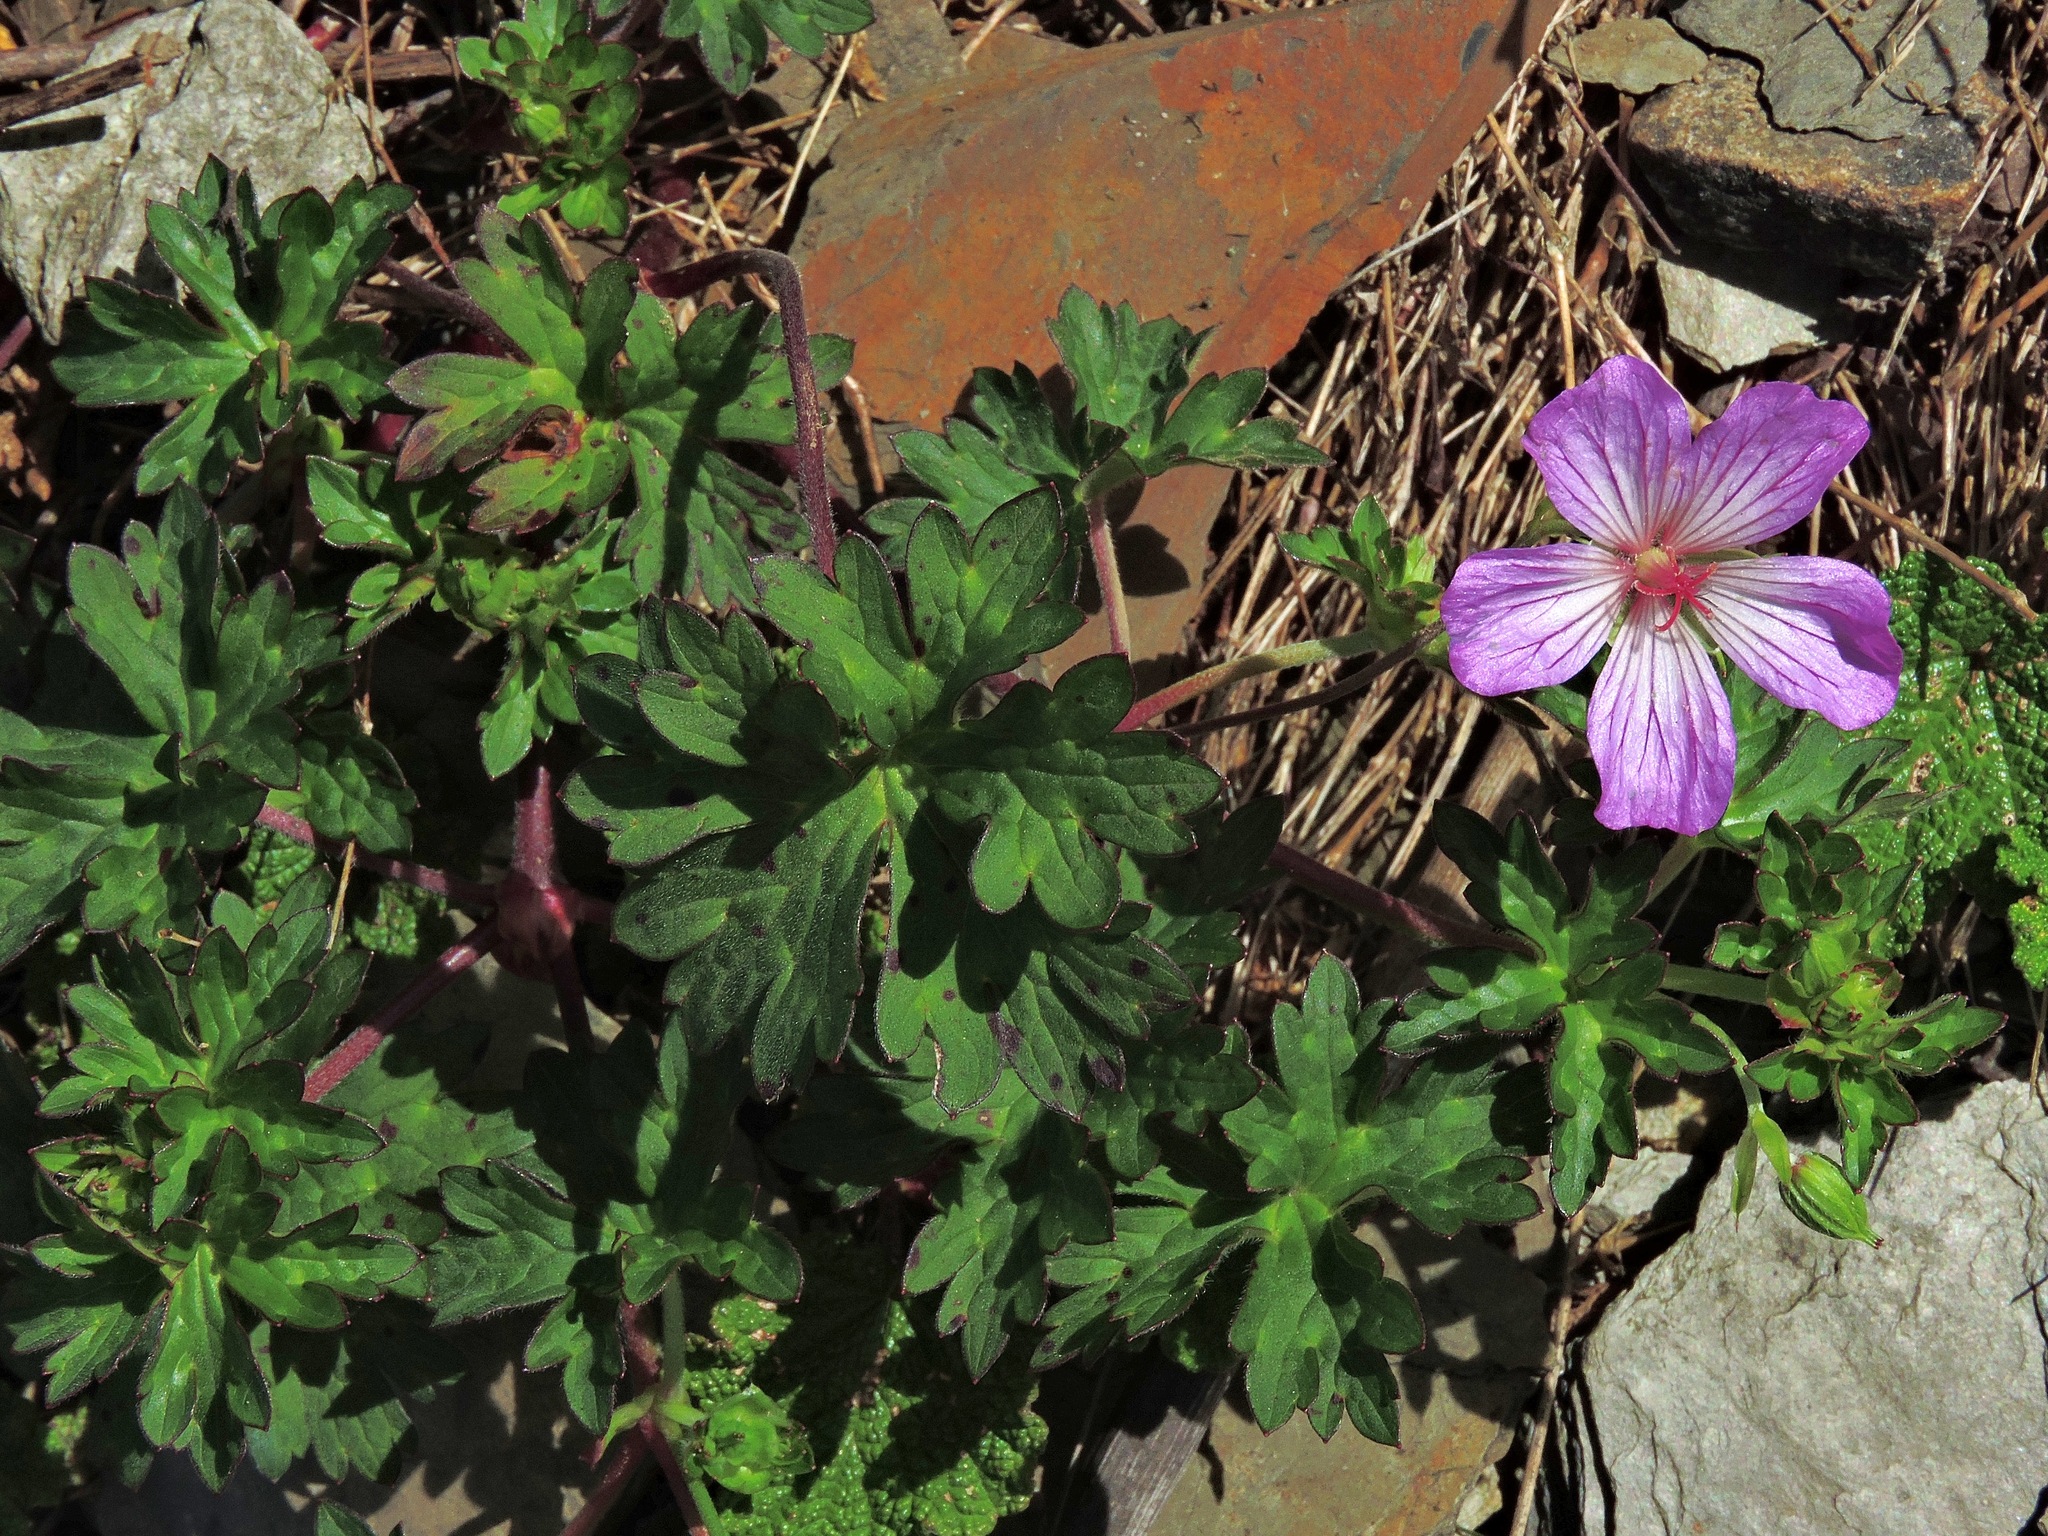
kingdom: Plantae
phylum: Tracheophyta
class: Magnoliopsida
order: Geraniales
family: Geraniaceae
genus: Geranium
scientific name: Geranium hayatanum
